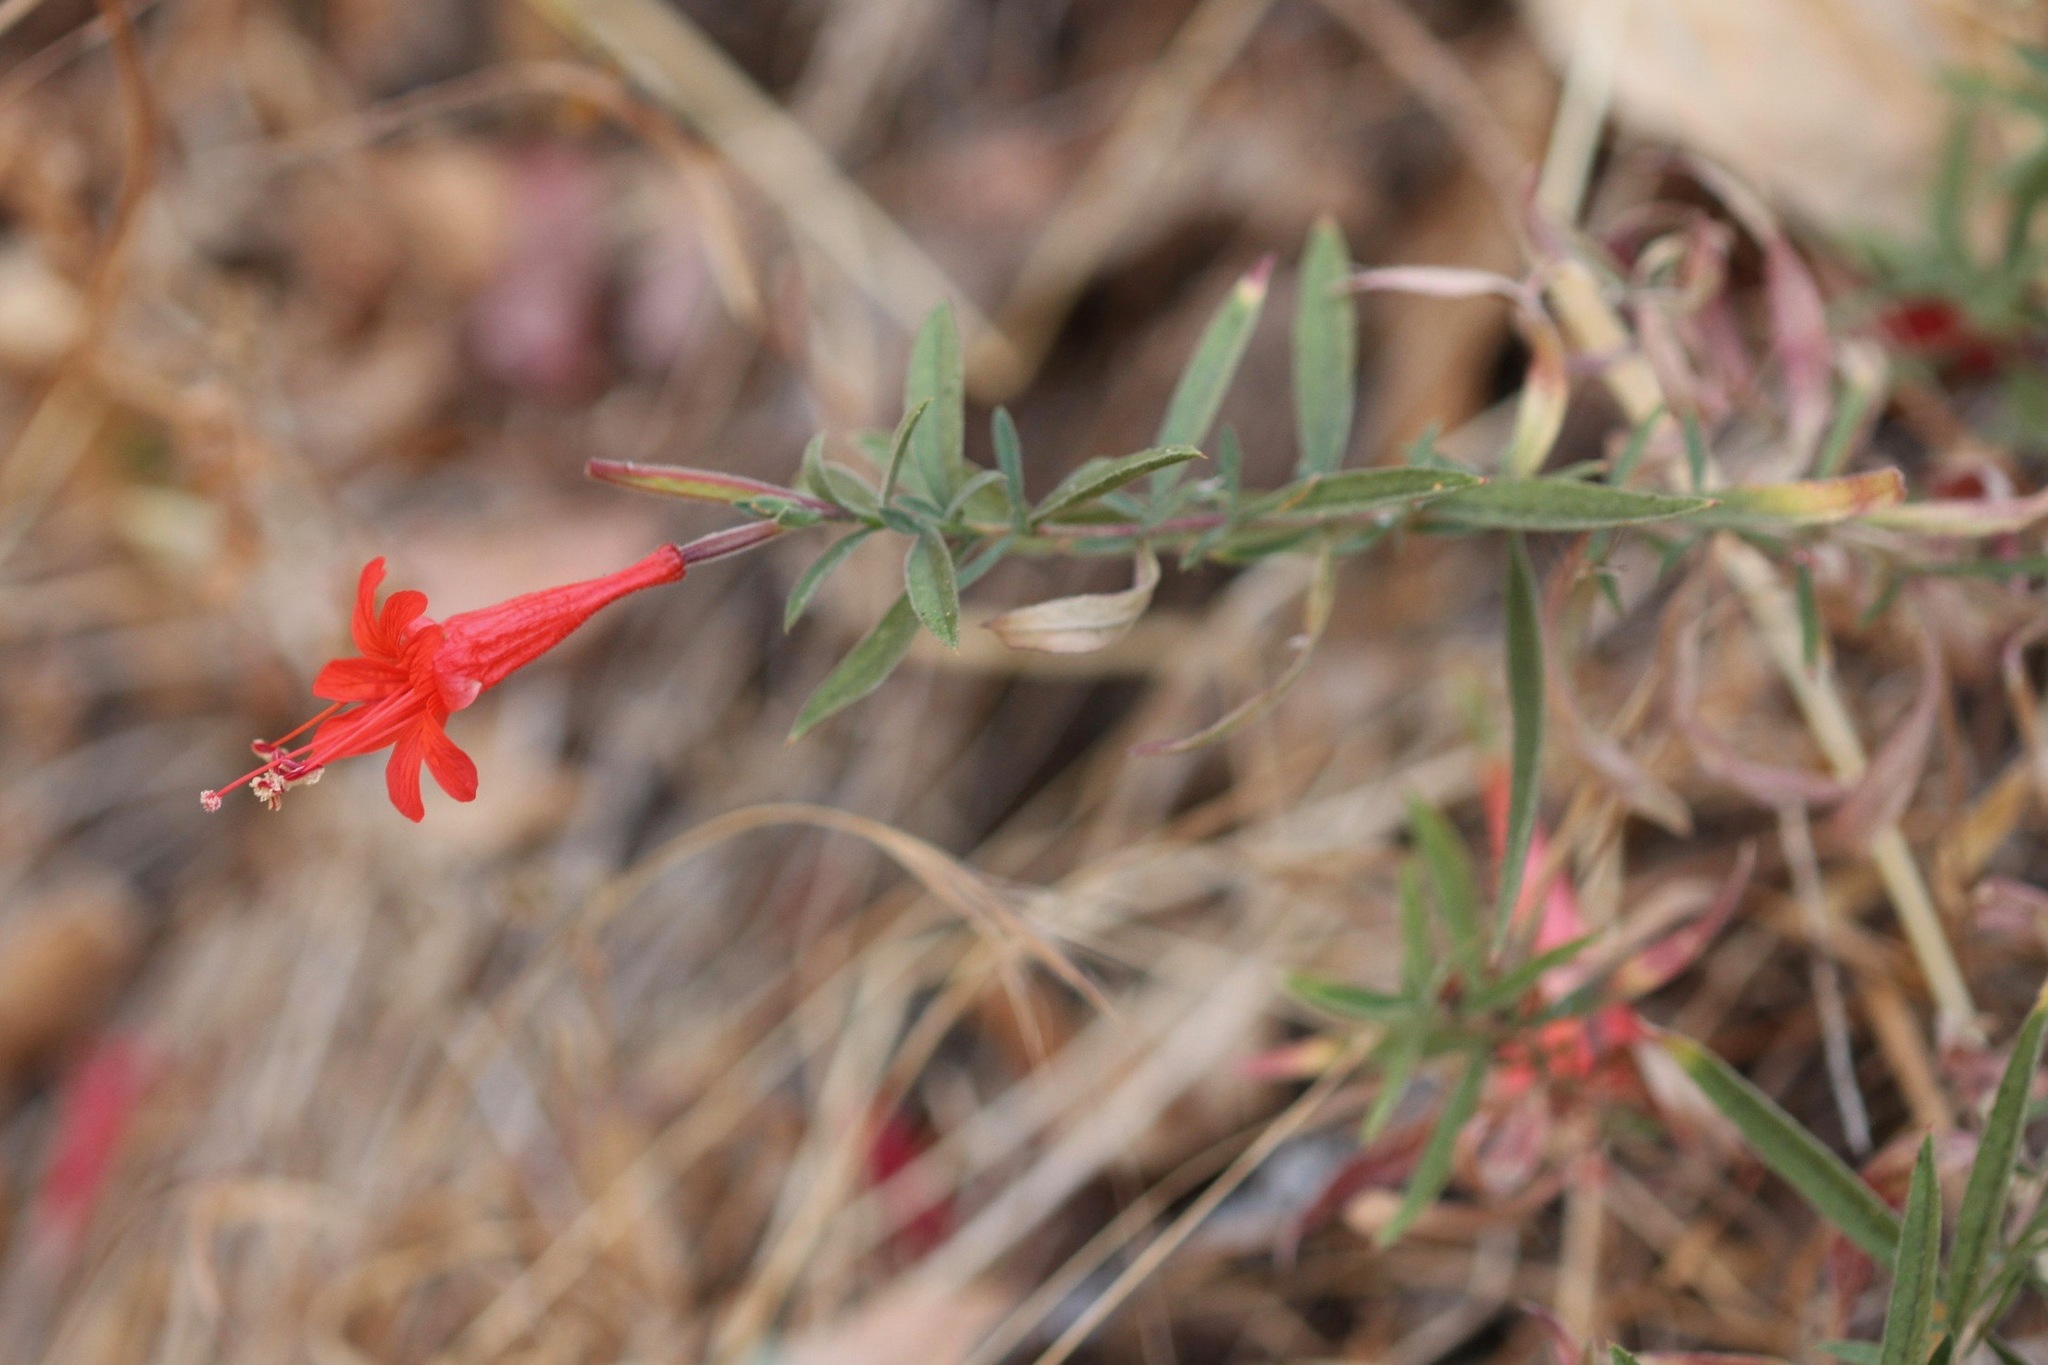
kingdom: Plantae
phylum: Tracheophyta
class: Magnoliopsida
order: Myrtales
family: Onagraceae
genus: Epilobium
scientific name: Epilobium canum
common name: California-fuchsia
